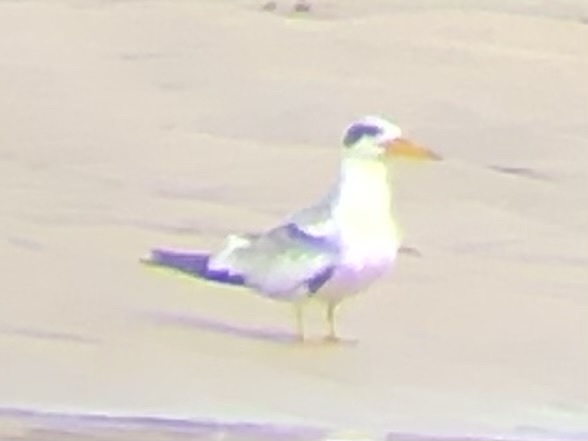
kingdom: Animalia
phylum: Chordata
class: Aves
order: Charadriiformes
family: Laridae
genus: Phaetusa
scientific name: Phaetusa simplex
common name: Large-billed tern
